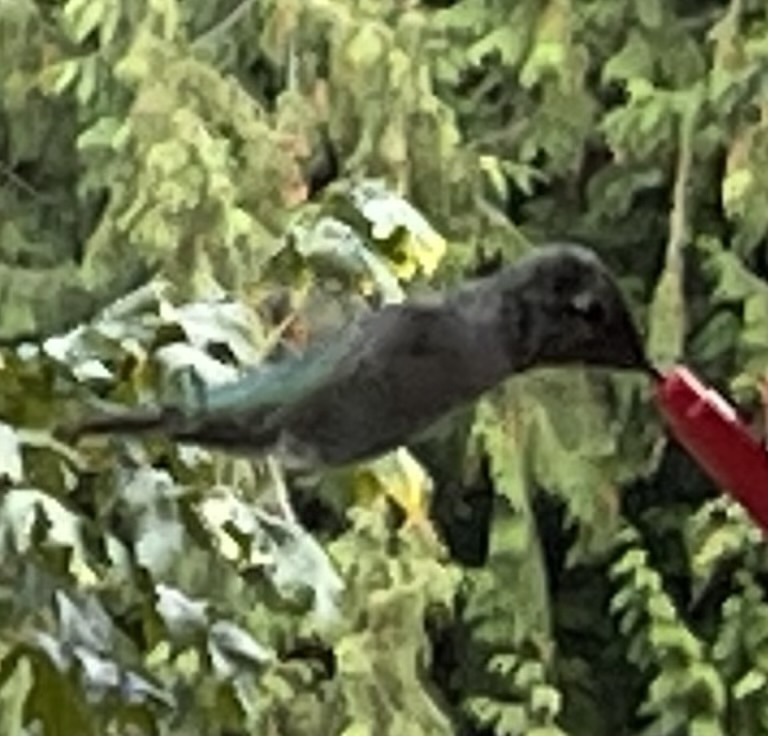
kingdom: Animalia
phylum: Chordata
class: Aves
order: Apodiformes
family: Trochilidae
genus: Calypte
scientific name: Calypte anna
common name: Anna's hummingbird
